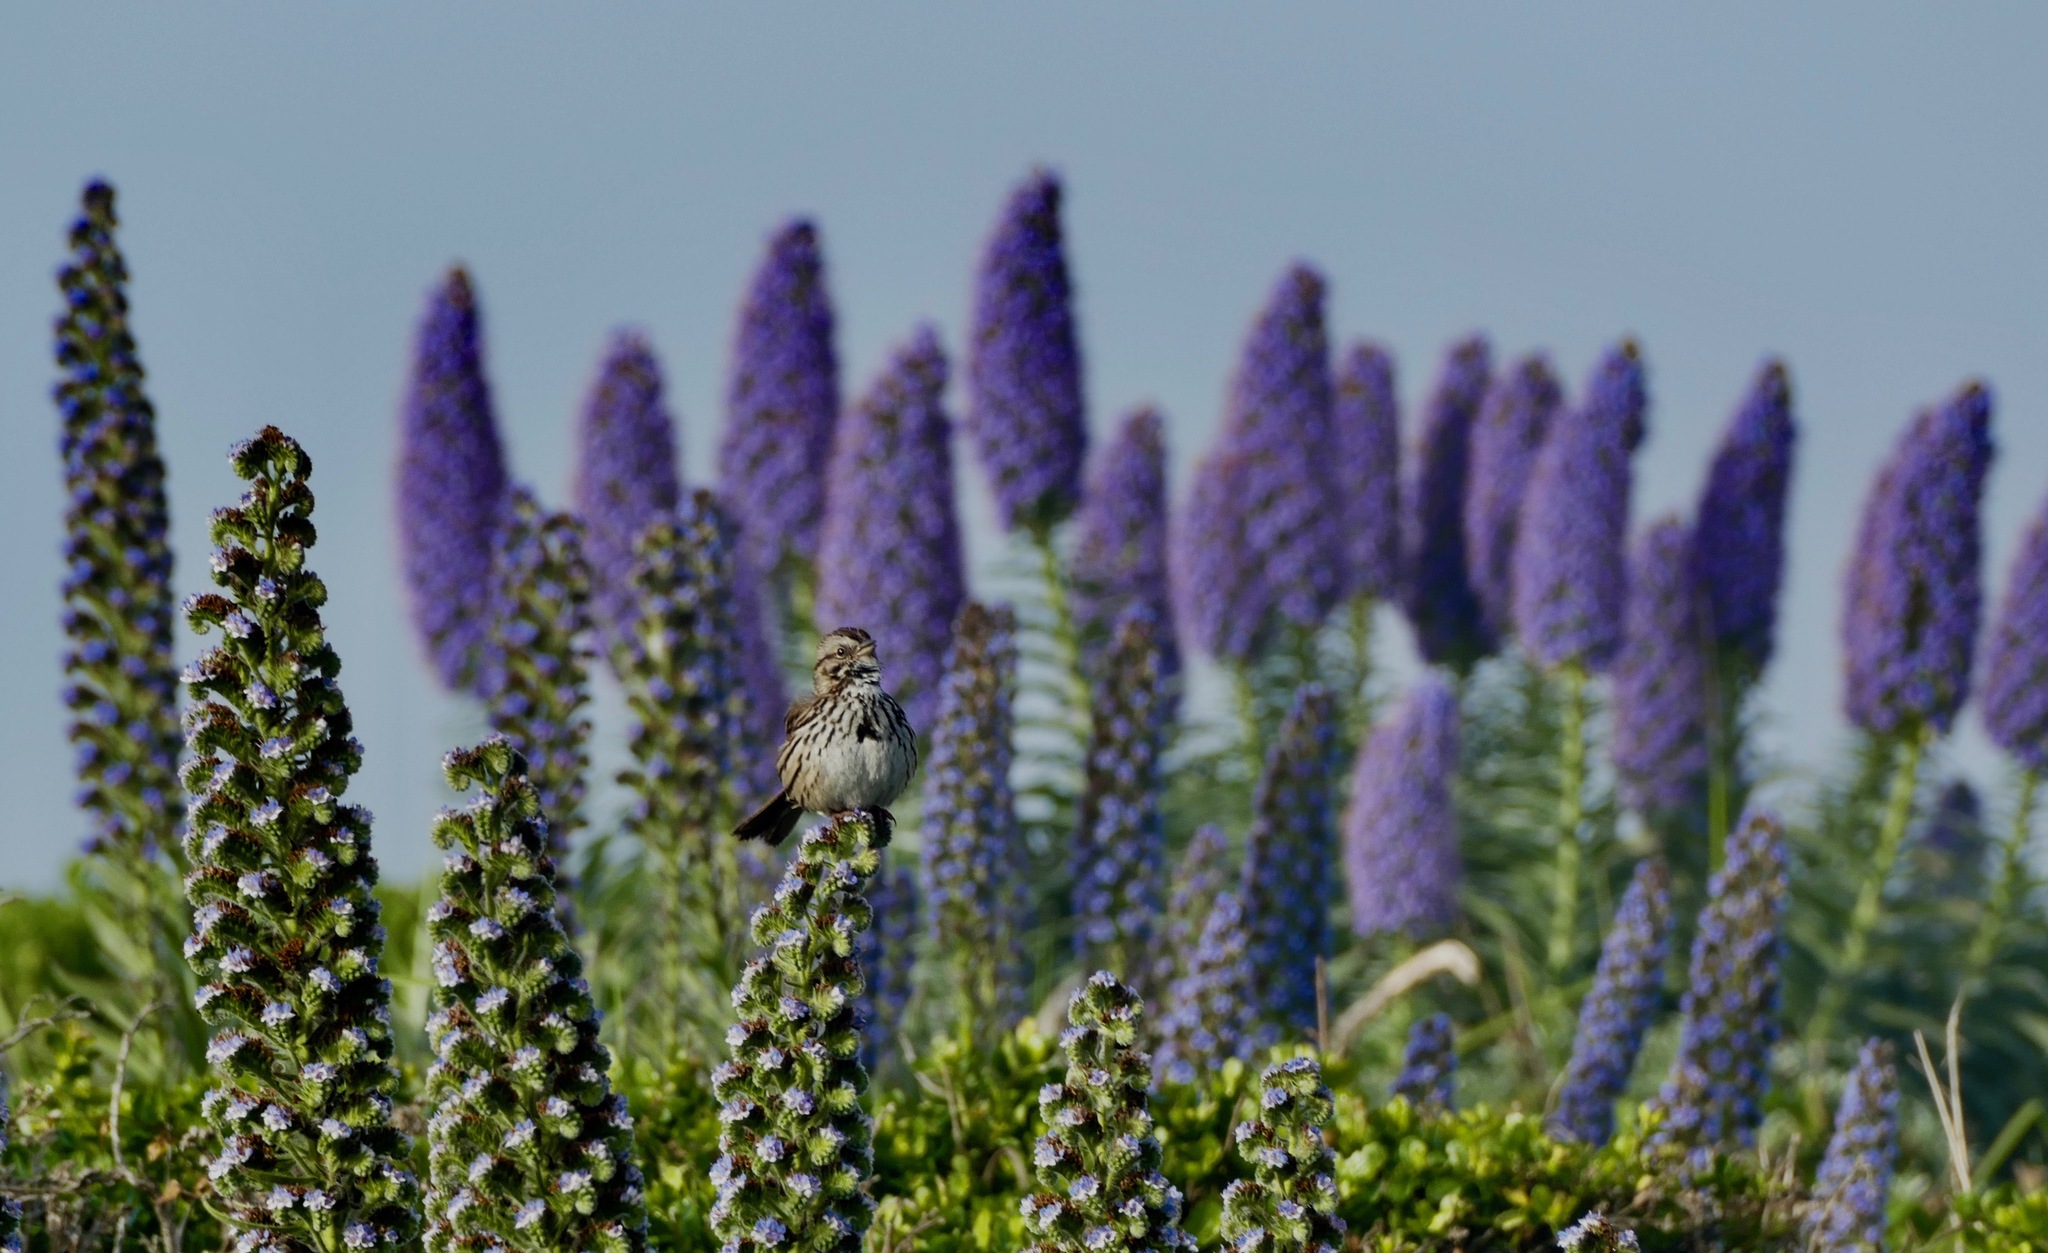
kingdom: Animalia
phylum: Chordata
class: Aves
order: Passeriformes
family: Passerellidae
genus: Melospiza
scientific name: Melospiza melodia
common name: Song sparrow
